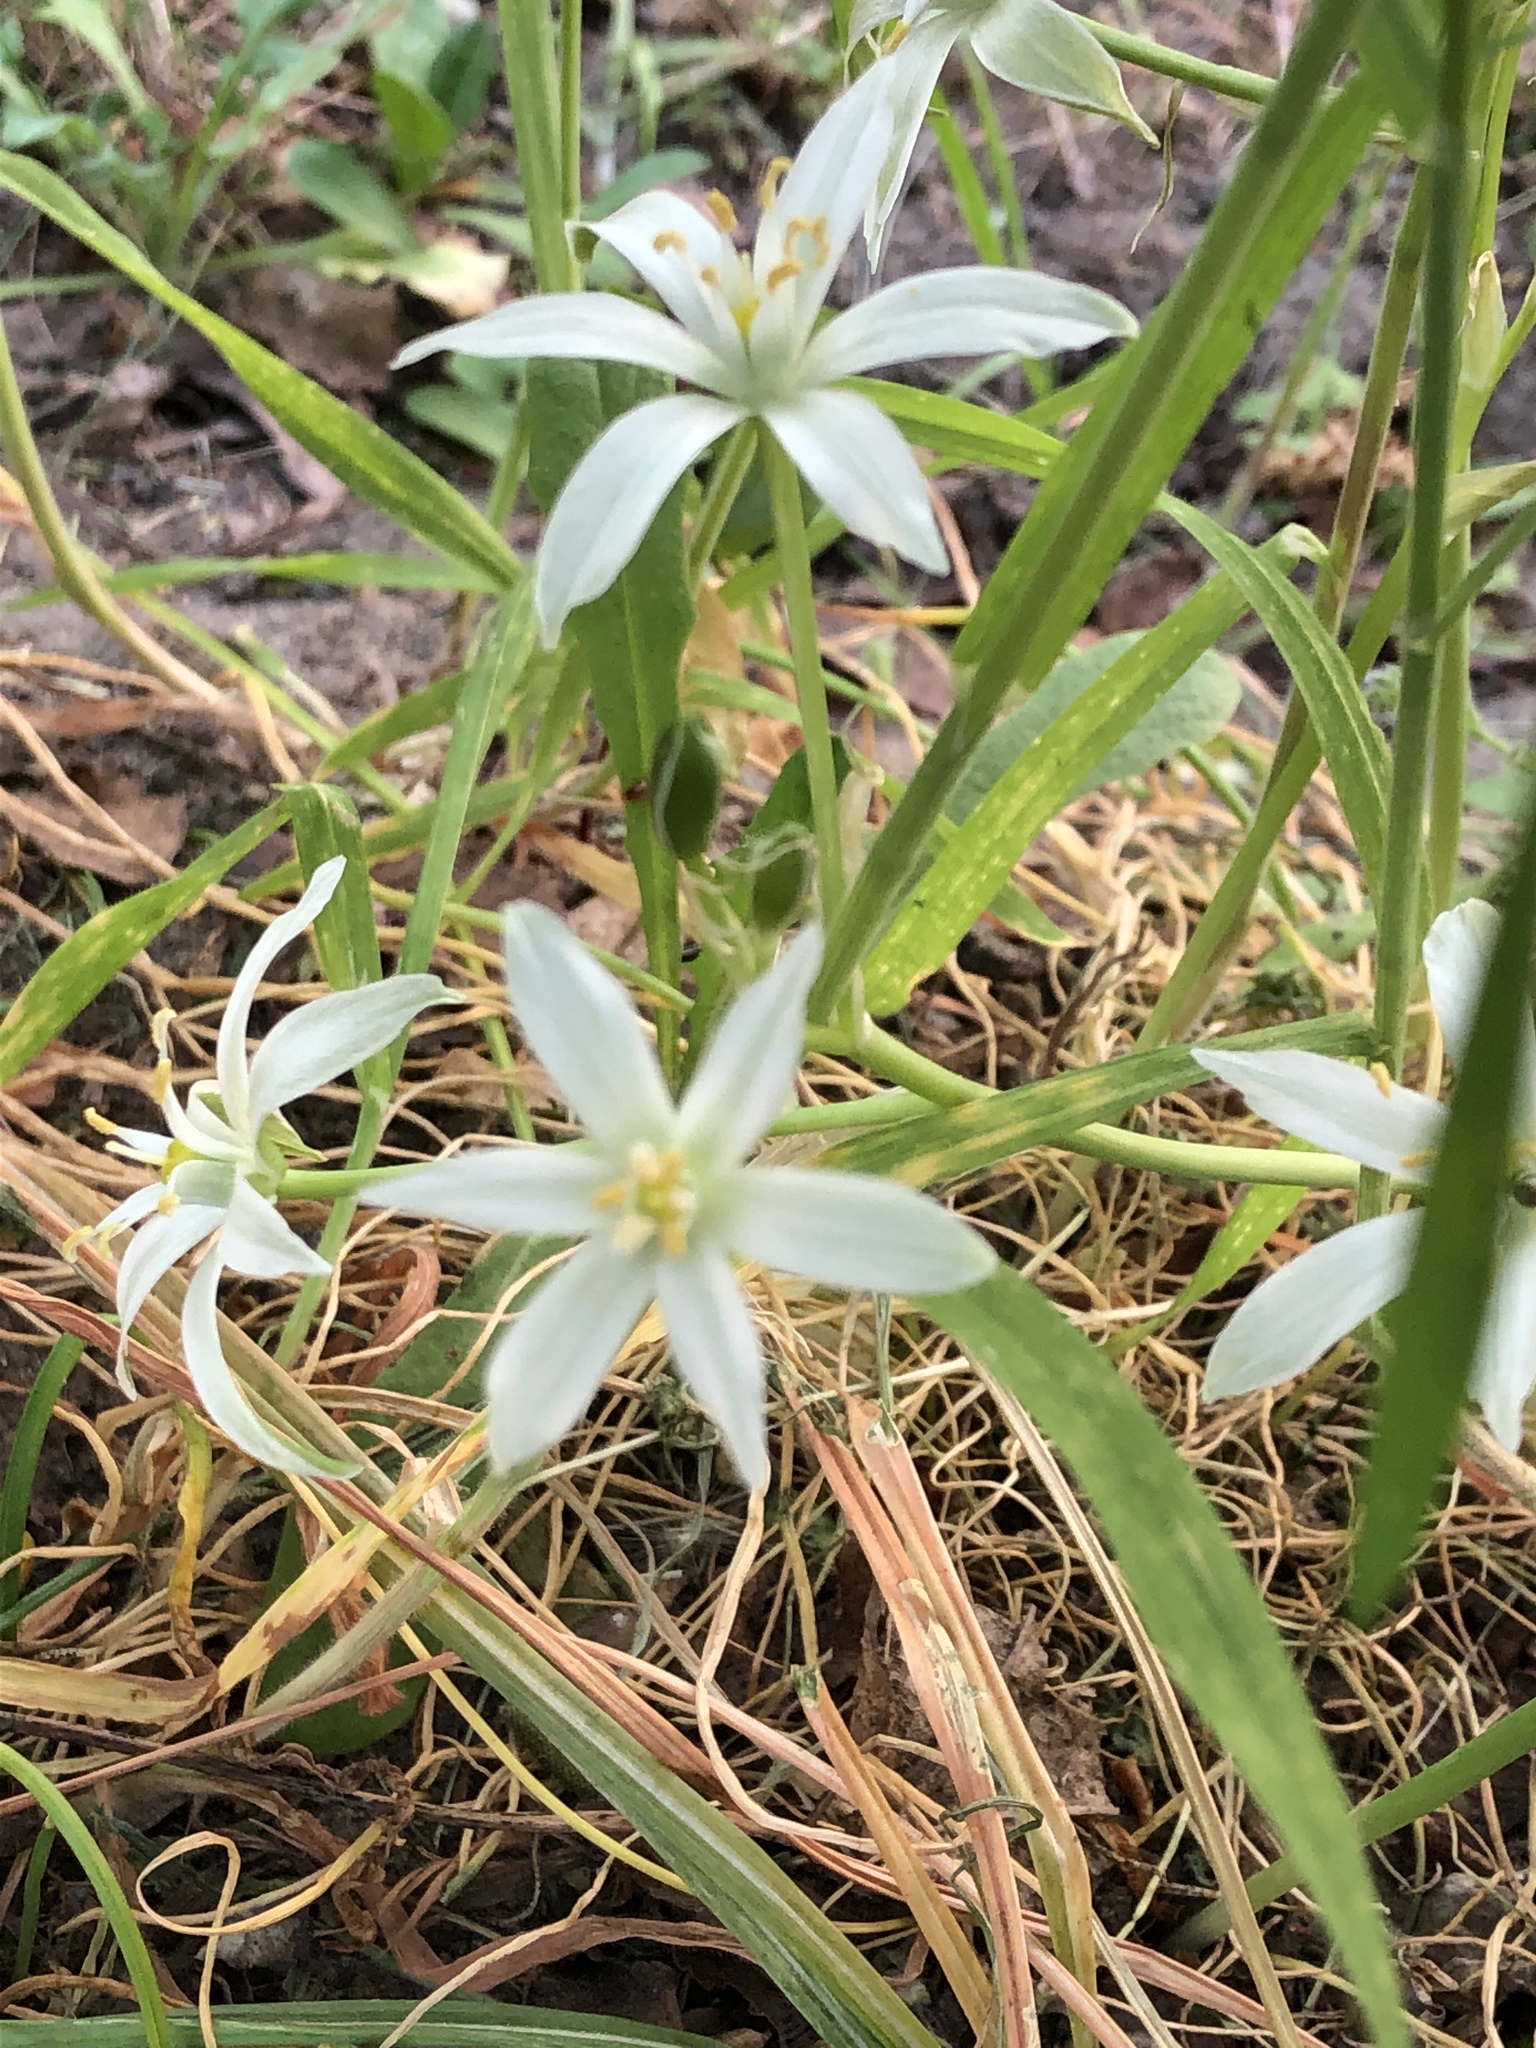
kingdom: Plantae
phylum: Tracheophyta
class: Liliopsida
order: Asparagales
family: Asparagaceae
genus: Ornithogalum
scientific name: Ornithogalum umbellatum
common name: Garden star-of-bethlehem
